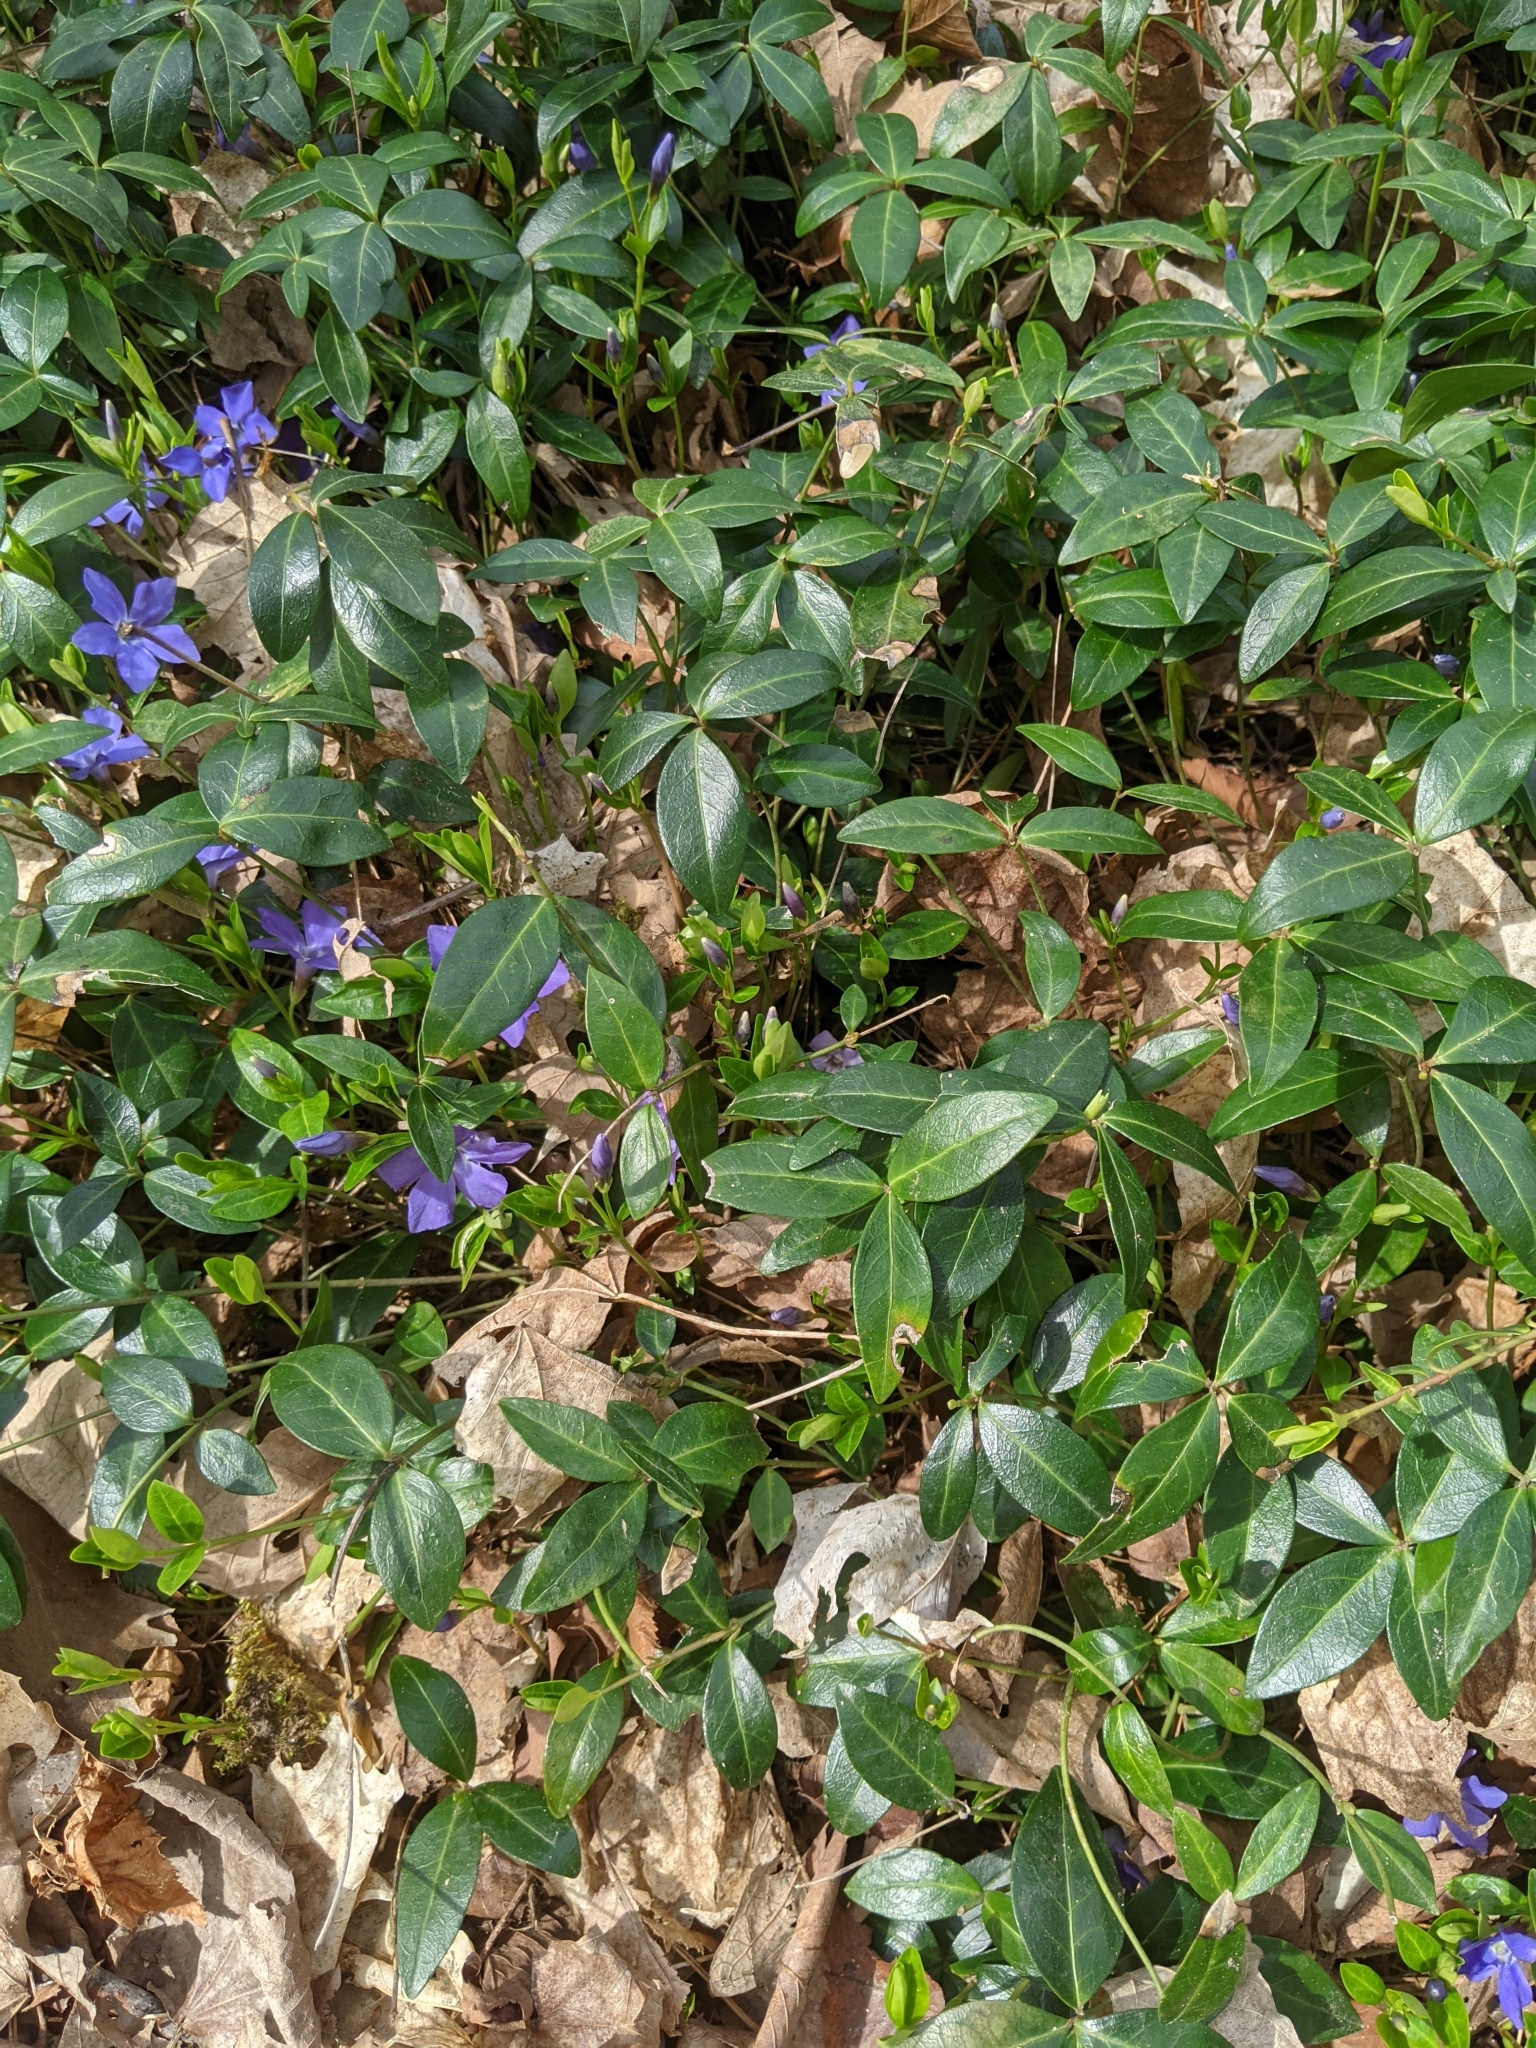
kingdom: Plantae
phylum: Tracheophyta
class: Magnoliopsida
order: Gentianales
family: Apocynaceae
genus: Vinca
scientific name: Vinca minor
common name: Lesser periwinkle
